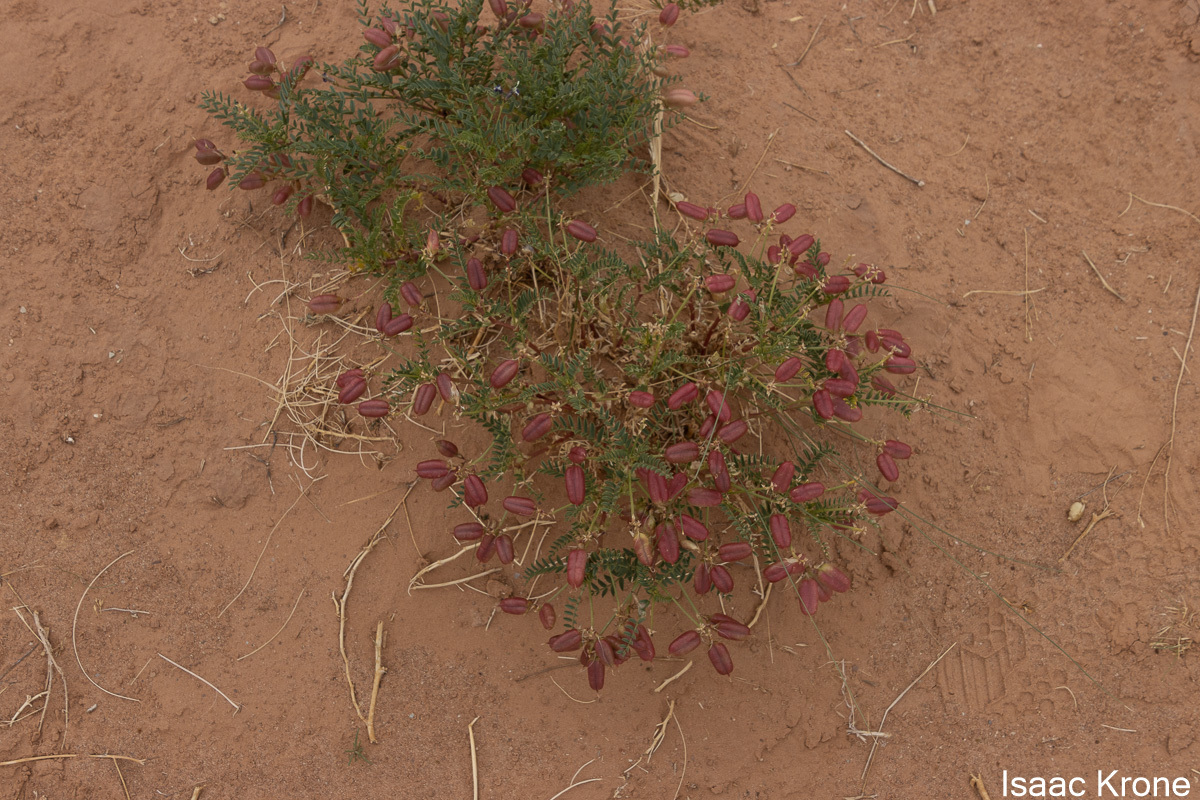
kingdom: Plantae
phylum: Tracheophyta
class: Magnoliopsida
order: Fabales
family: Fabaceae
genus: Astragalus
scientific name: Astragalus praelongus
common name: Stinking milk-vetch
